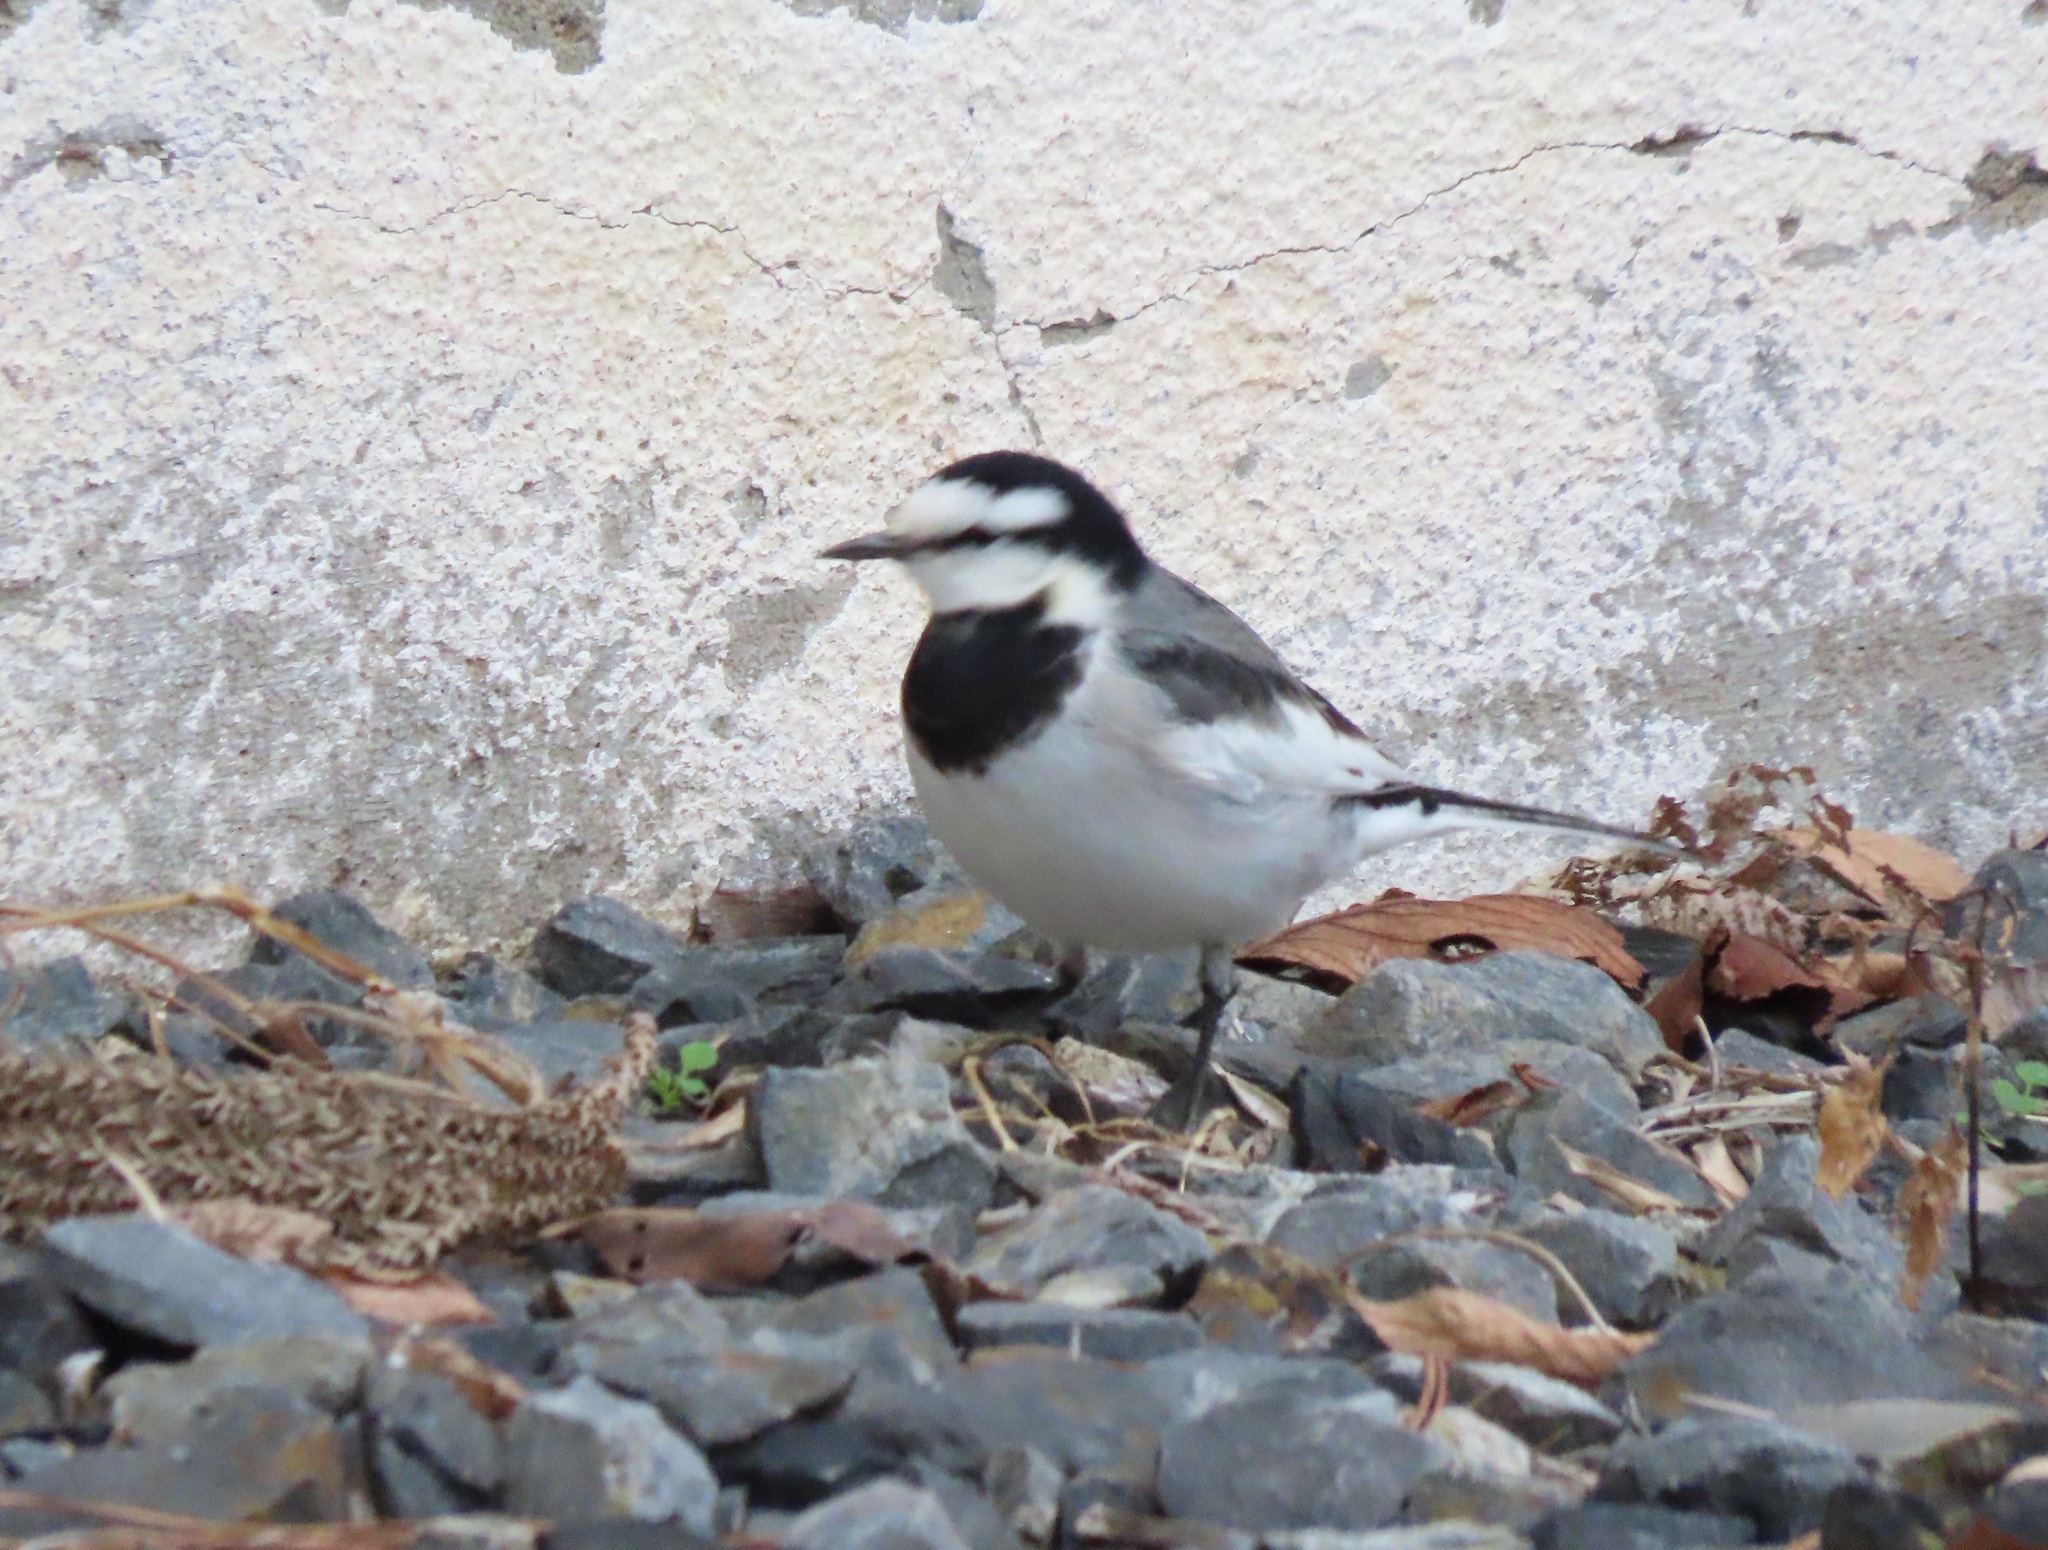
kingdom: Animalia
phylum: Chordata
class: Aves
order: Passeriformes
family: Motacillidae
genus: Motacilla
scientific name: Motacilla alba
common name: White wagtail
